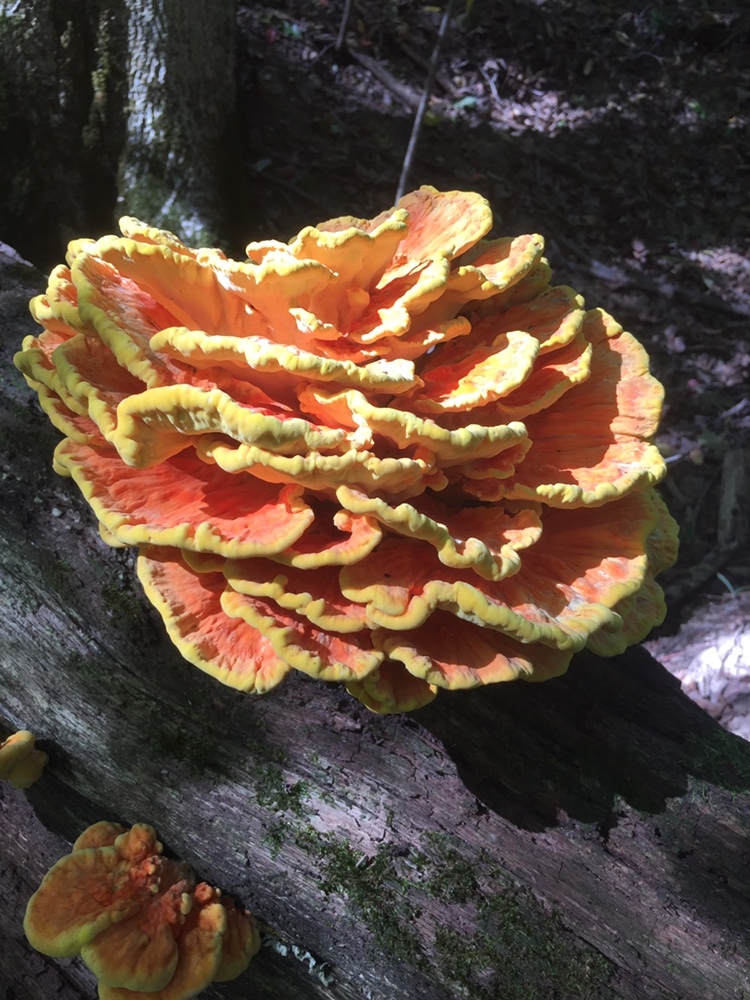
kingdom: Fungi
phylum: Basidiomycota
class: Agaricomycetes
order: Polyporales
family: Laetiporaceae
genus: Laetiporus
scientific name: Laetiporus sulphureus
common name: Chicken of the woods
